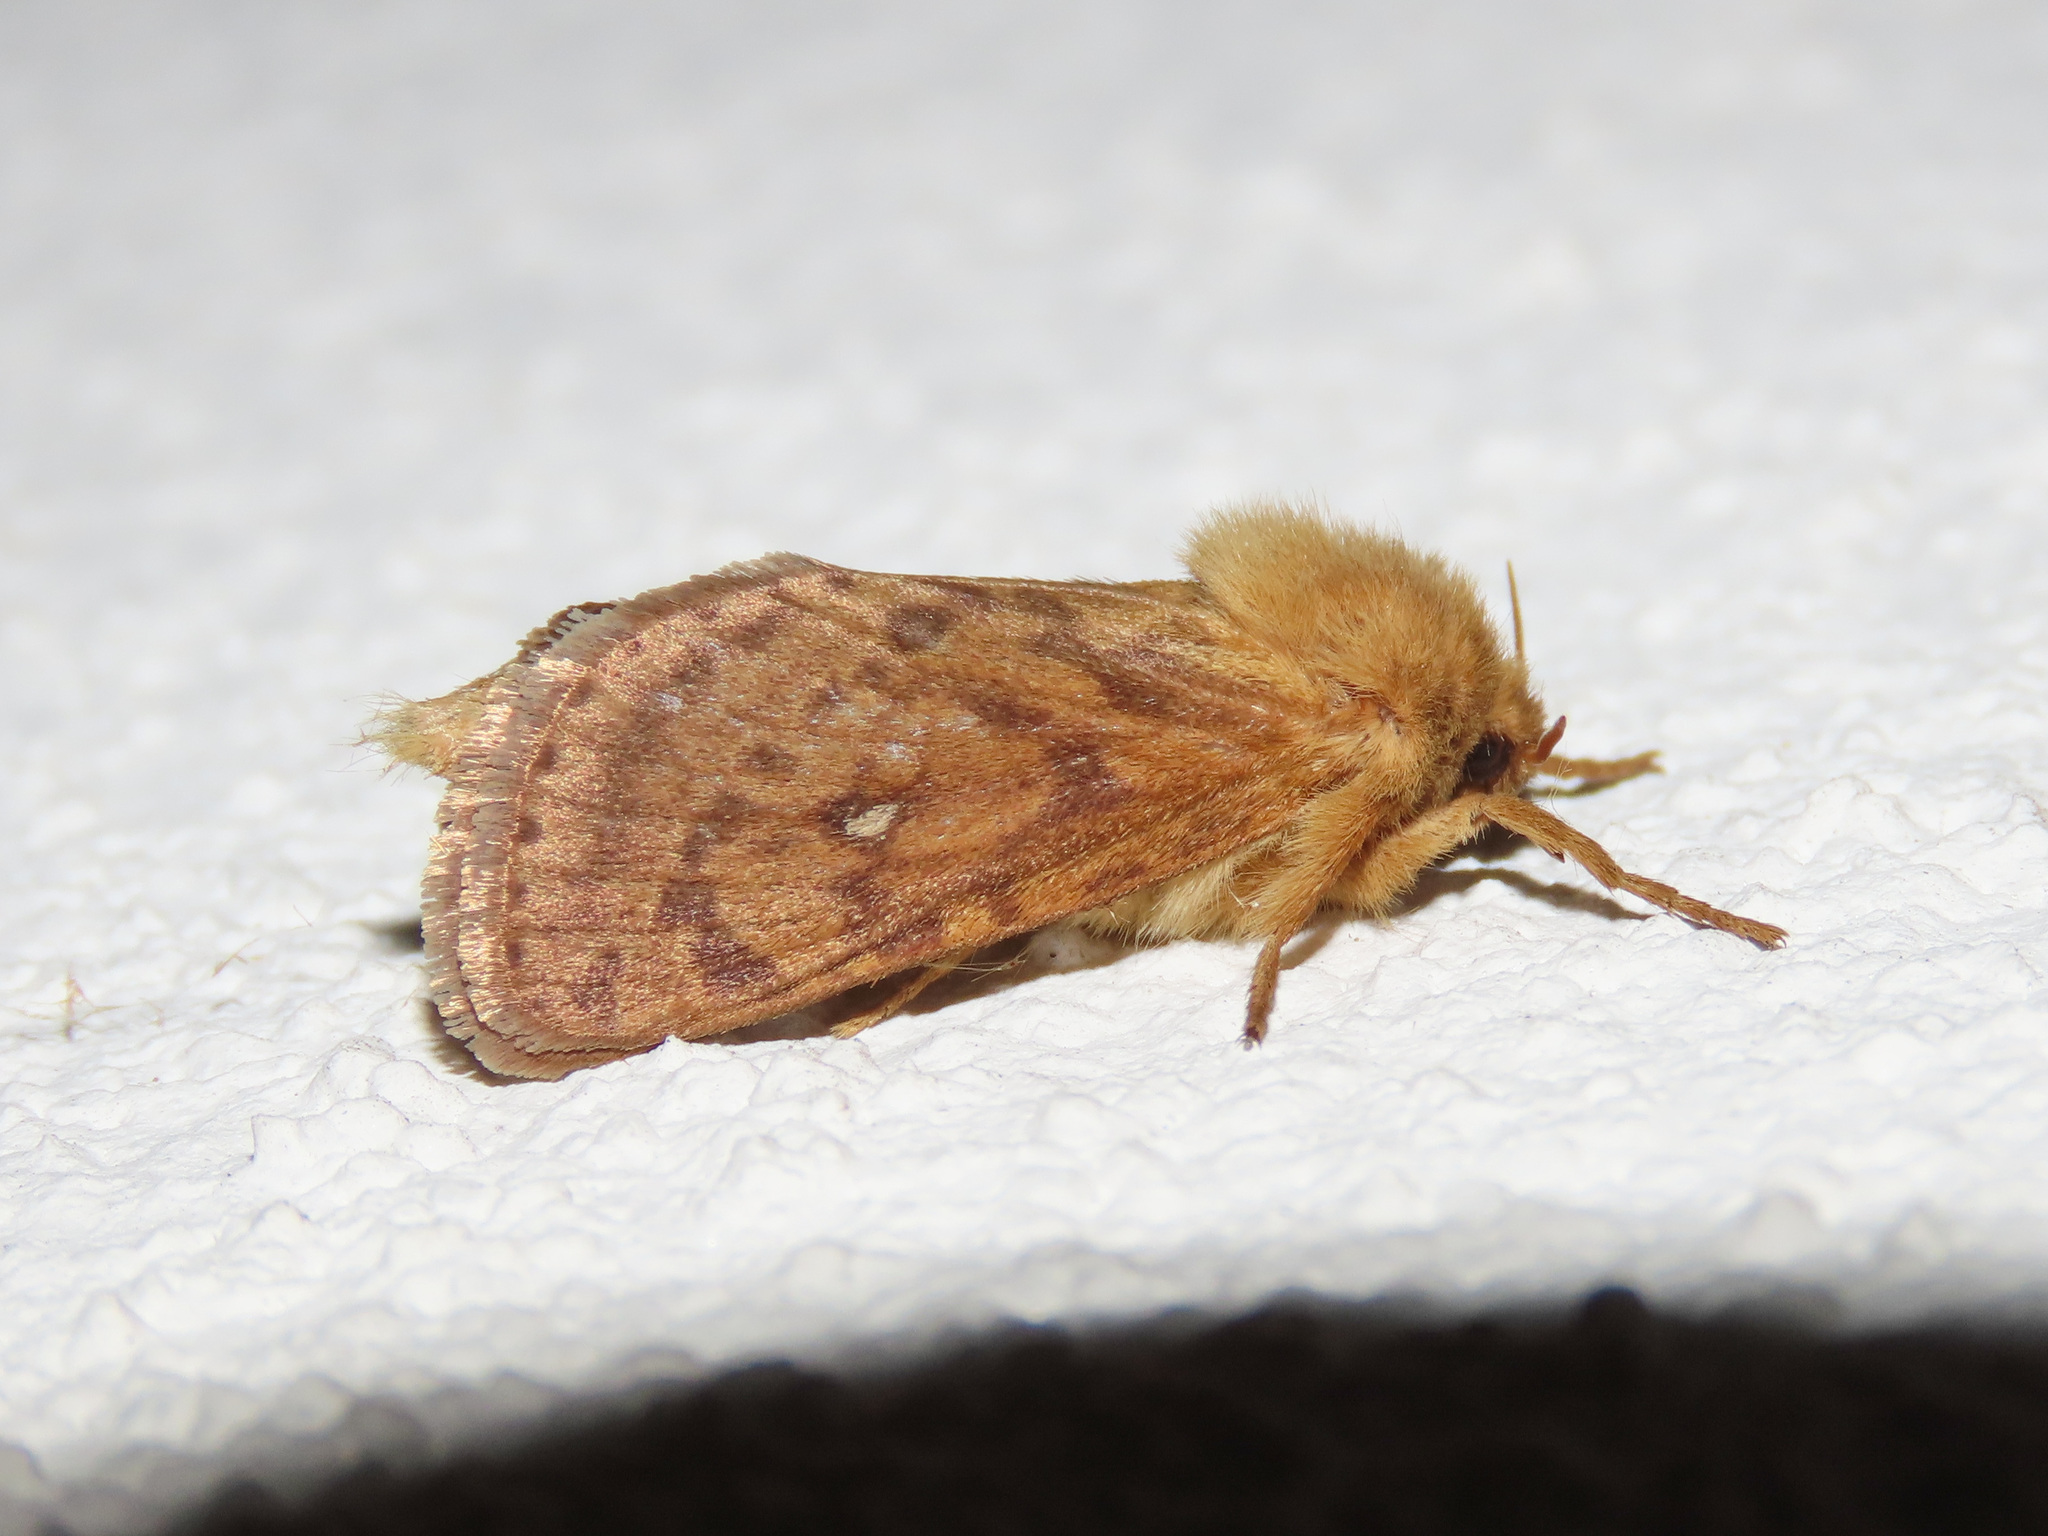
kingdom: Animalia
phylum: Arthropoda
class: Insecta
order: Lepidoptera
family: Hepialidae
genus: Pharmacis
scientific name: Pharmacis aemilianus
